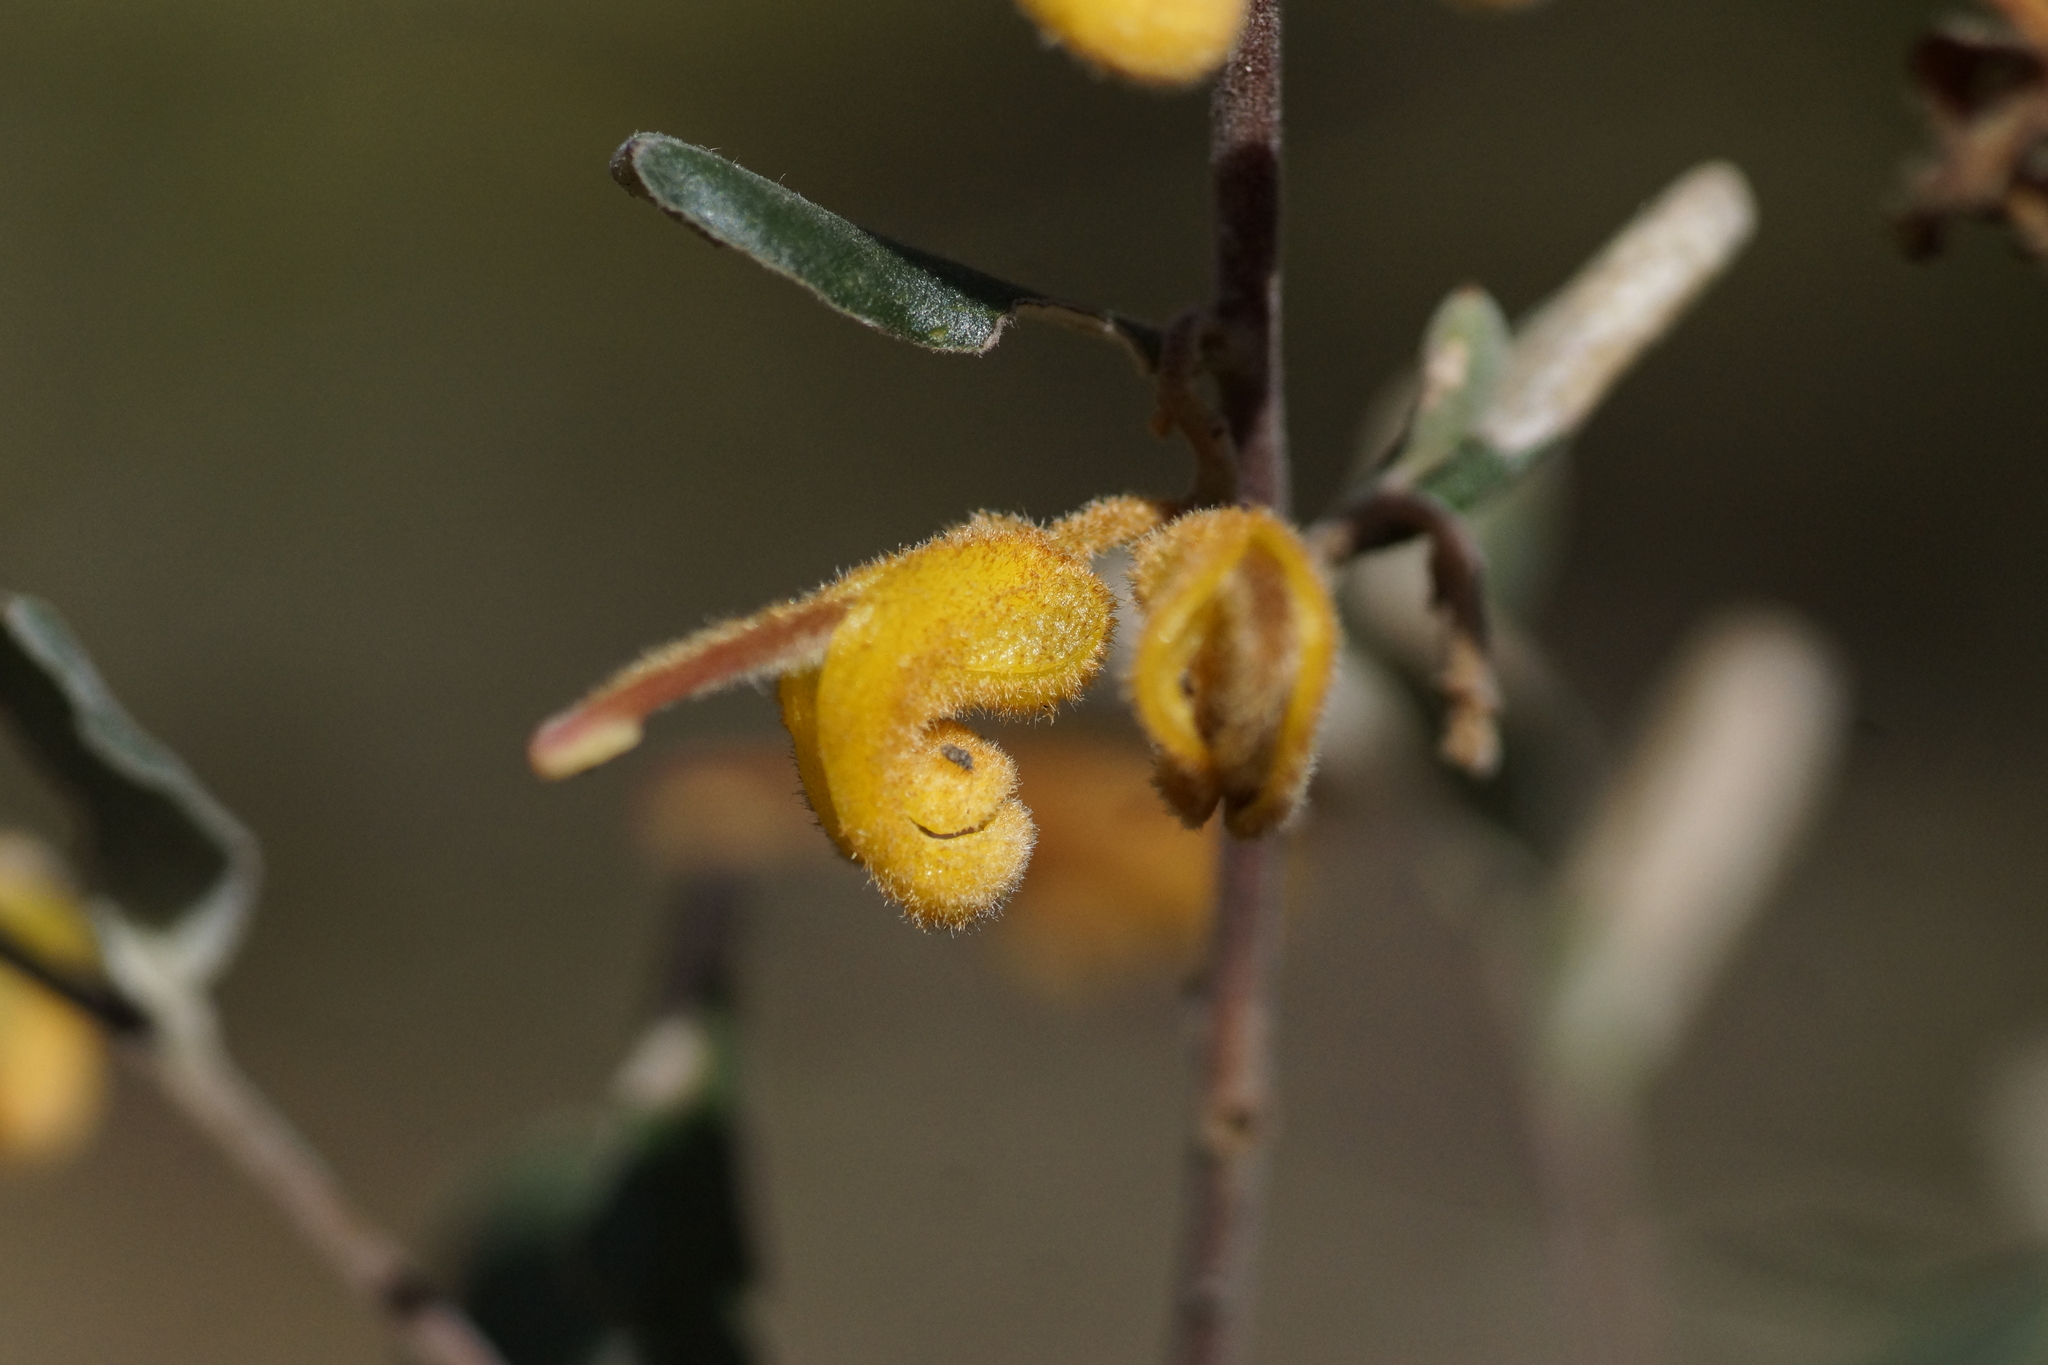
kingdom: Plantae
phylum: Tracheophyta
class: Magnoliopsida
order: Proteales
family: Proteaceae
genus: Grevillea
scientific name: Grevillea chrysophaea
